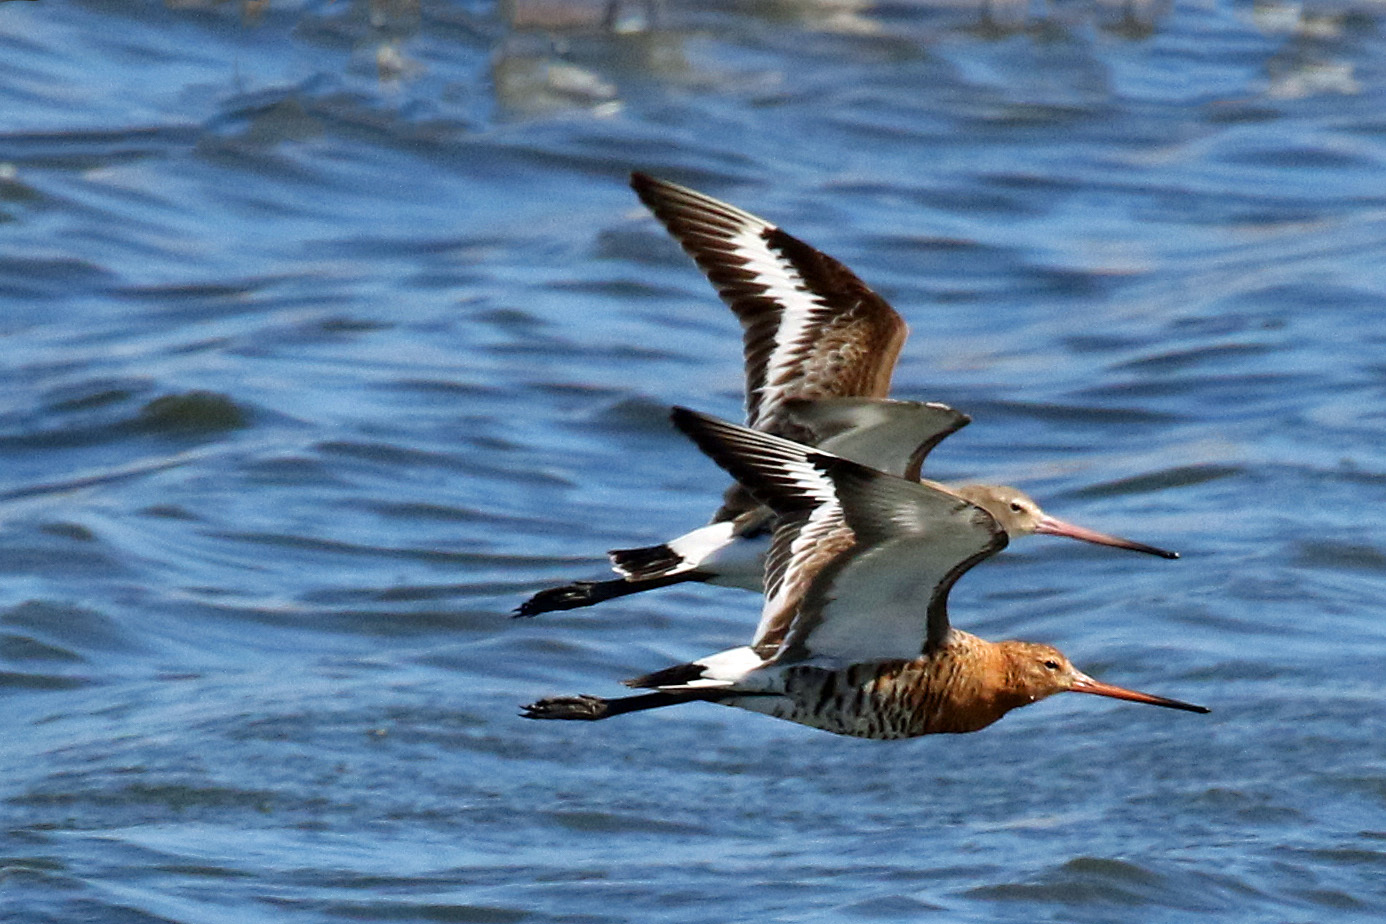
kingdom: Animalia
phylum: Chordata
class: Aves
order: Charadriiformes
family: Scolopacidae
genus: Limosa
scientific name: Limosa limosa
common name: Black-tailed godwit
